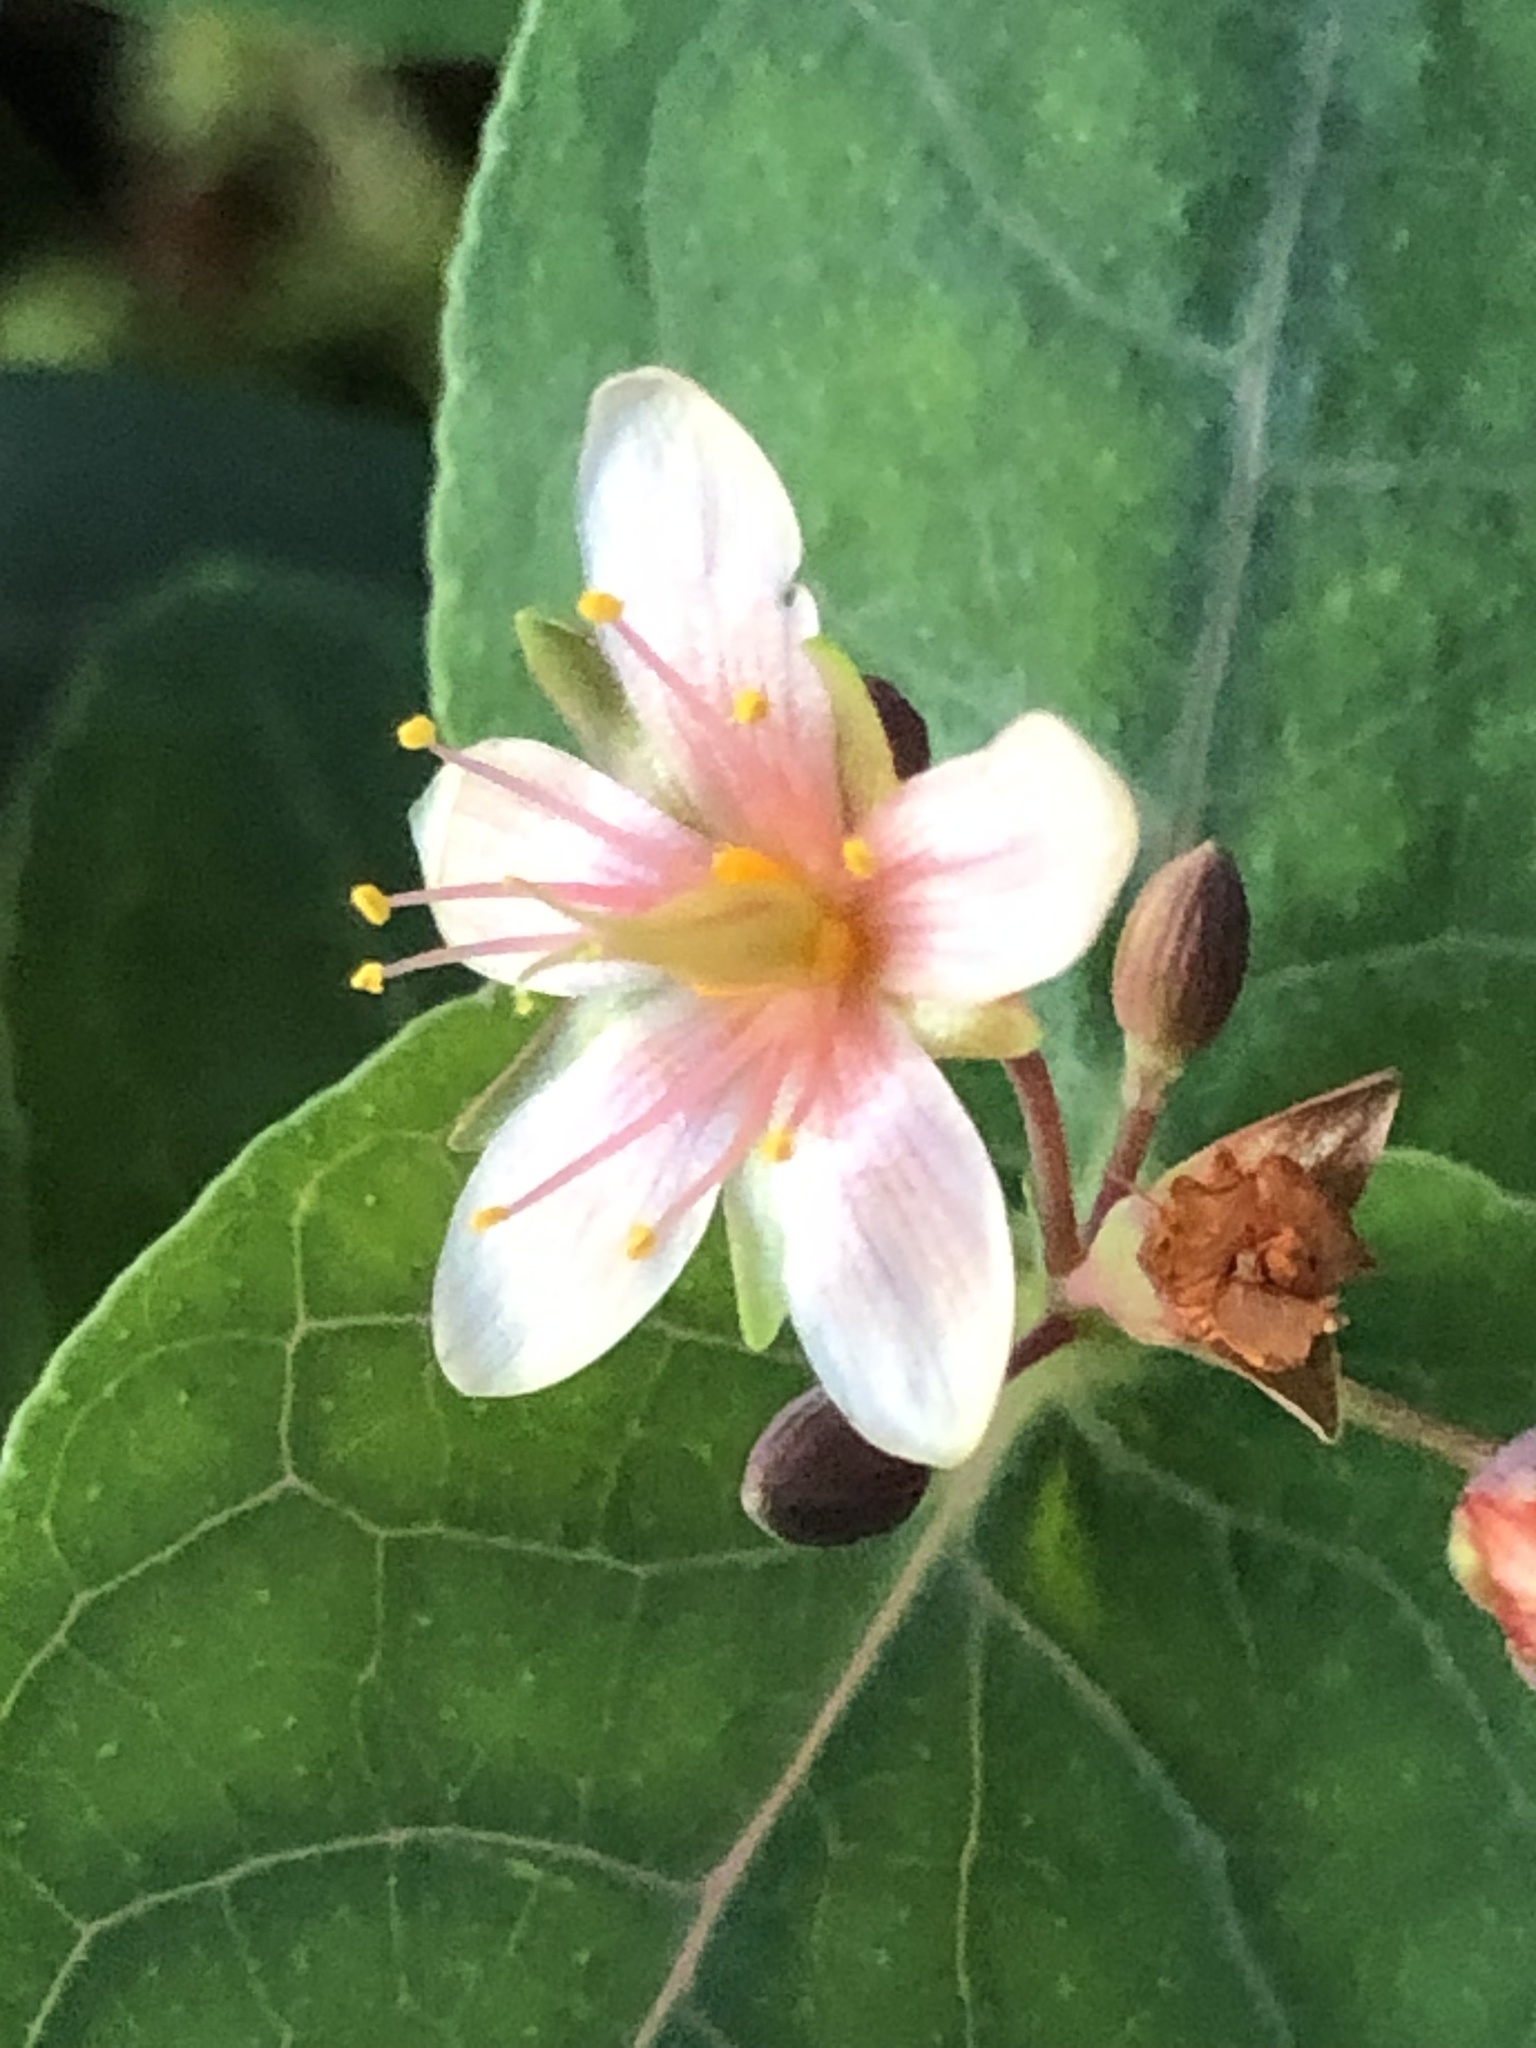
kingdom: Plantae
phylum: Tracheophyta
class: Magnoliopsida
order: Malpighiales
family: Hypericaceae
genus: Triadenum
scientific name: Triadenum virginicum
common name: Marsh st. john's-wort
